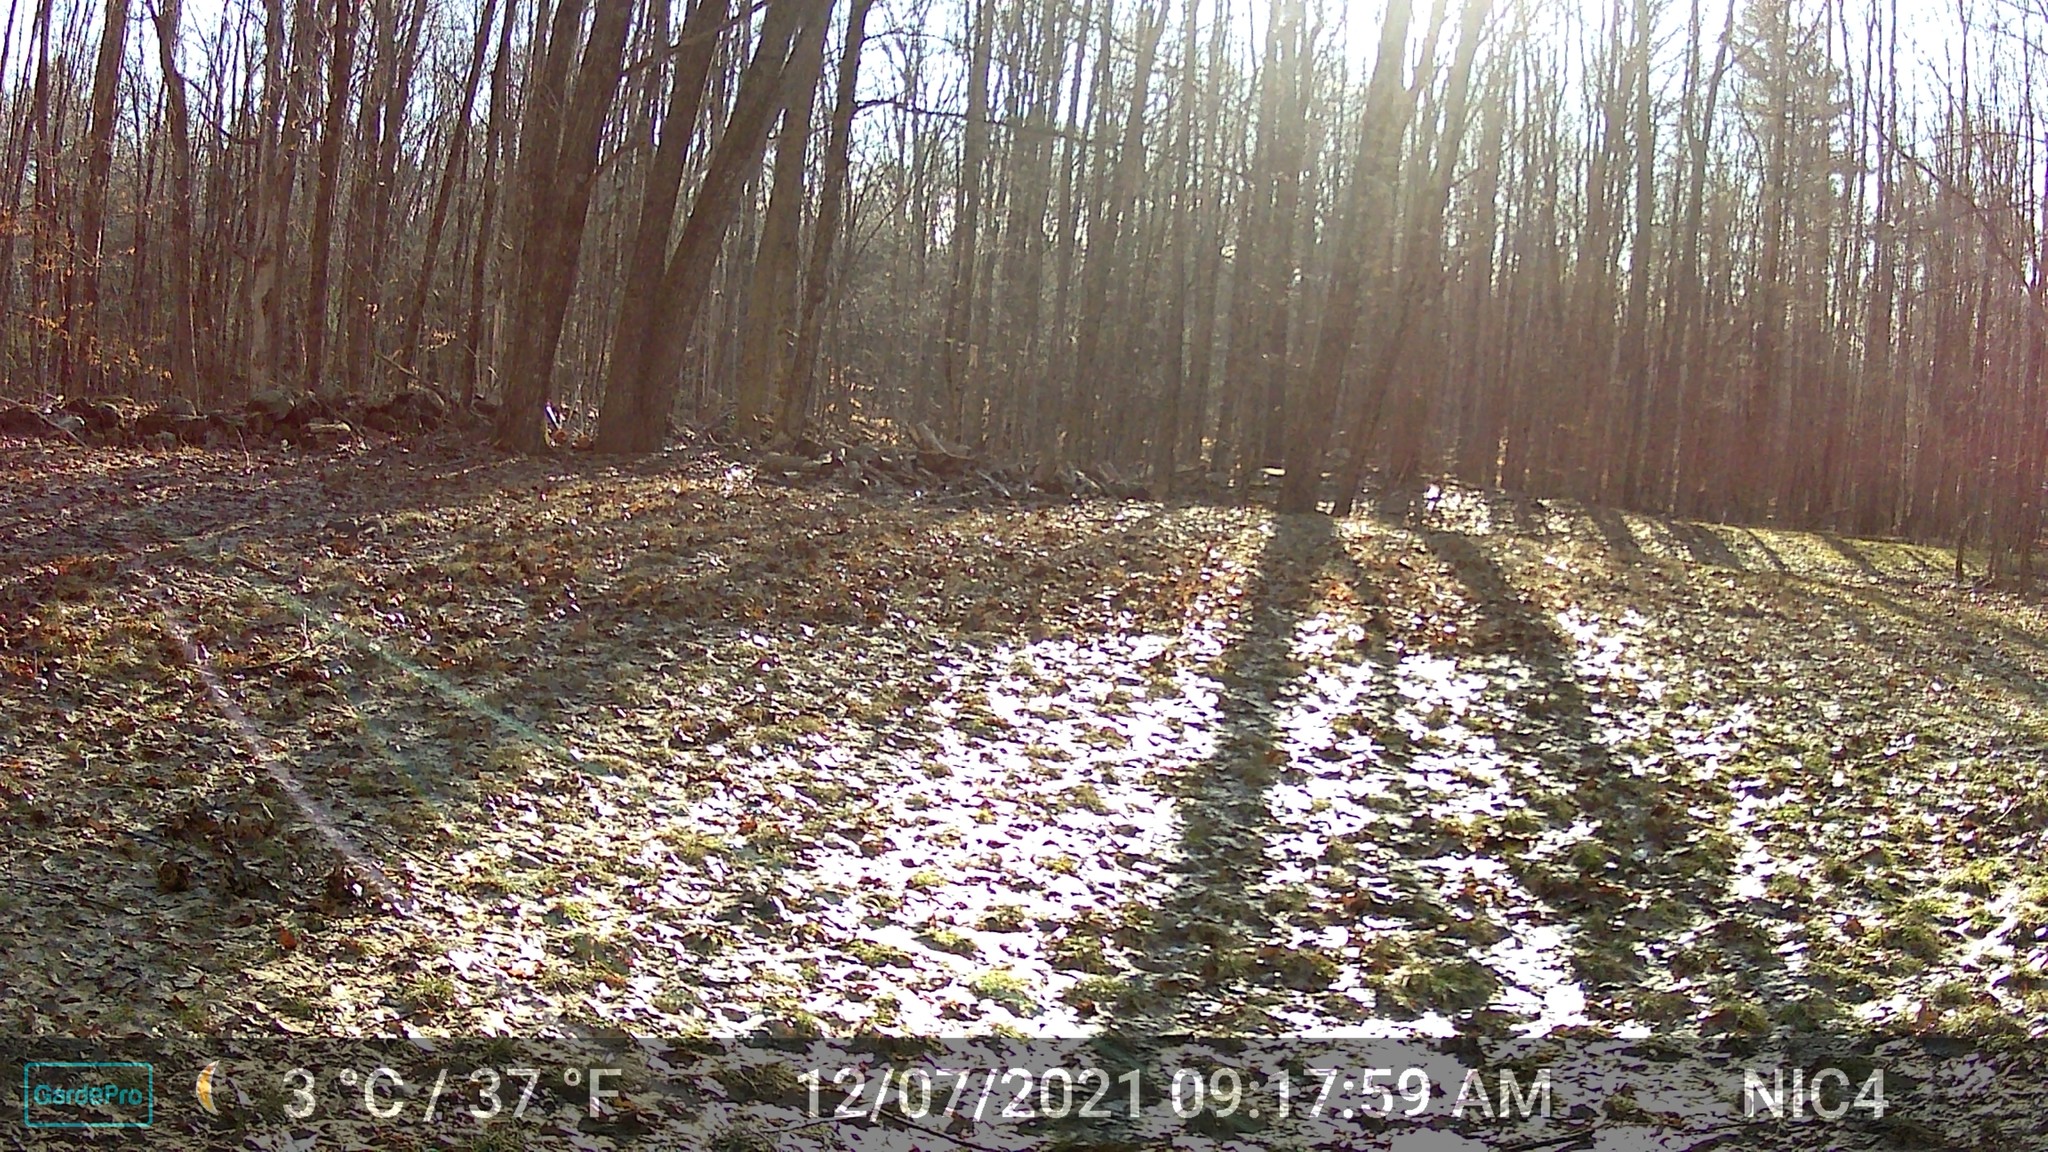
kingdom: Animalia
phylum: Chordata
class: Mammalia
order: Rodentia
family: Sciuridae
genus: Sciurus
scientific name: Sciurus carolinensis
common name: Eastern gray squirrel
